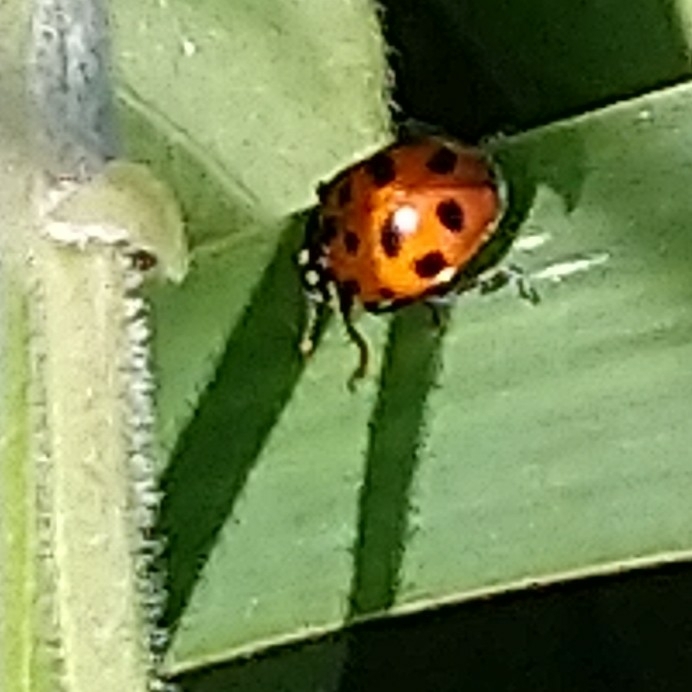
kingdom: Animalia
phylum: Arthropoda
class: Insecta
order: Coleoptera
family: Coccinellidae
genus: Hippodamia
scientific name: Hippodamia variegata
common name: Ladybird beetle
